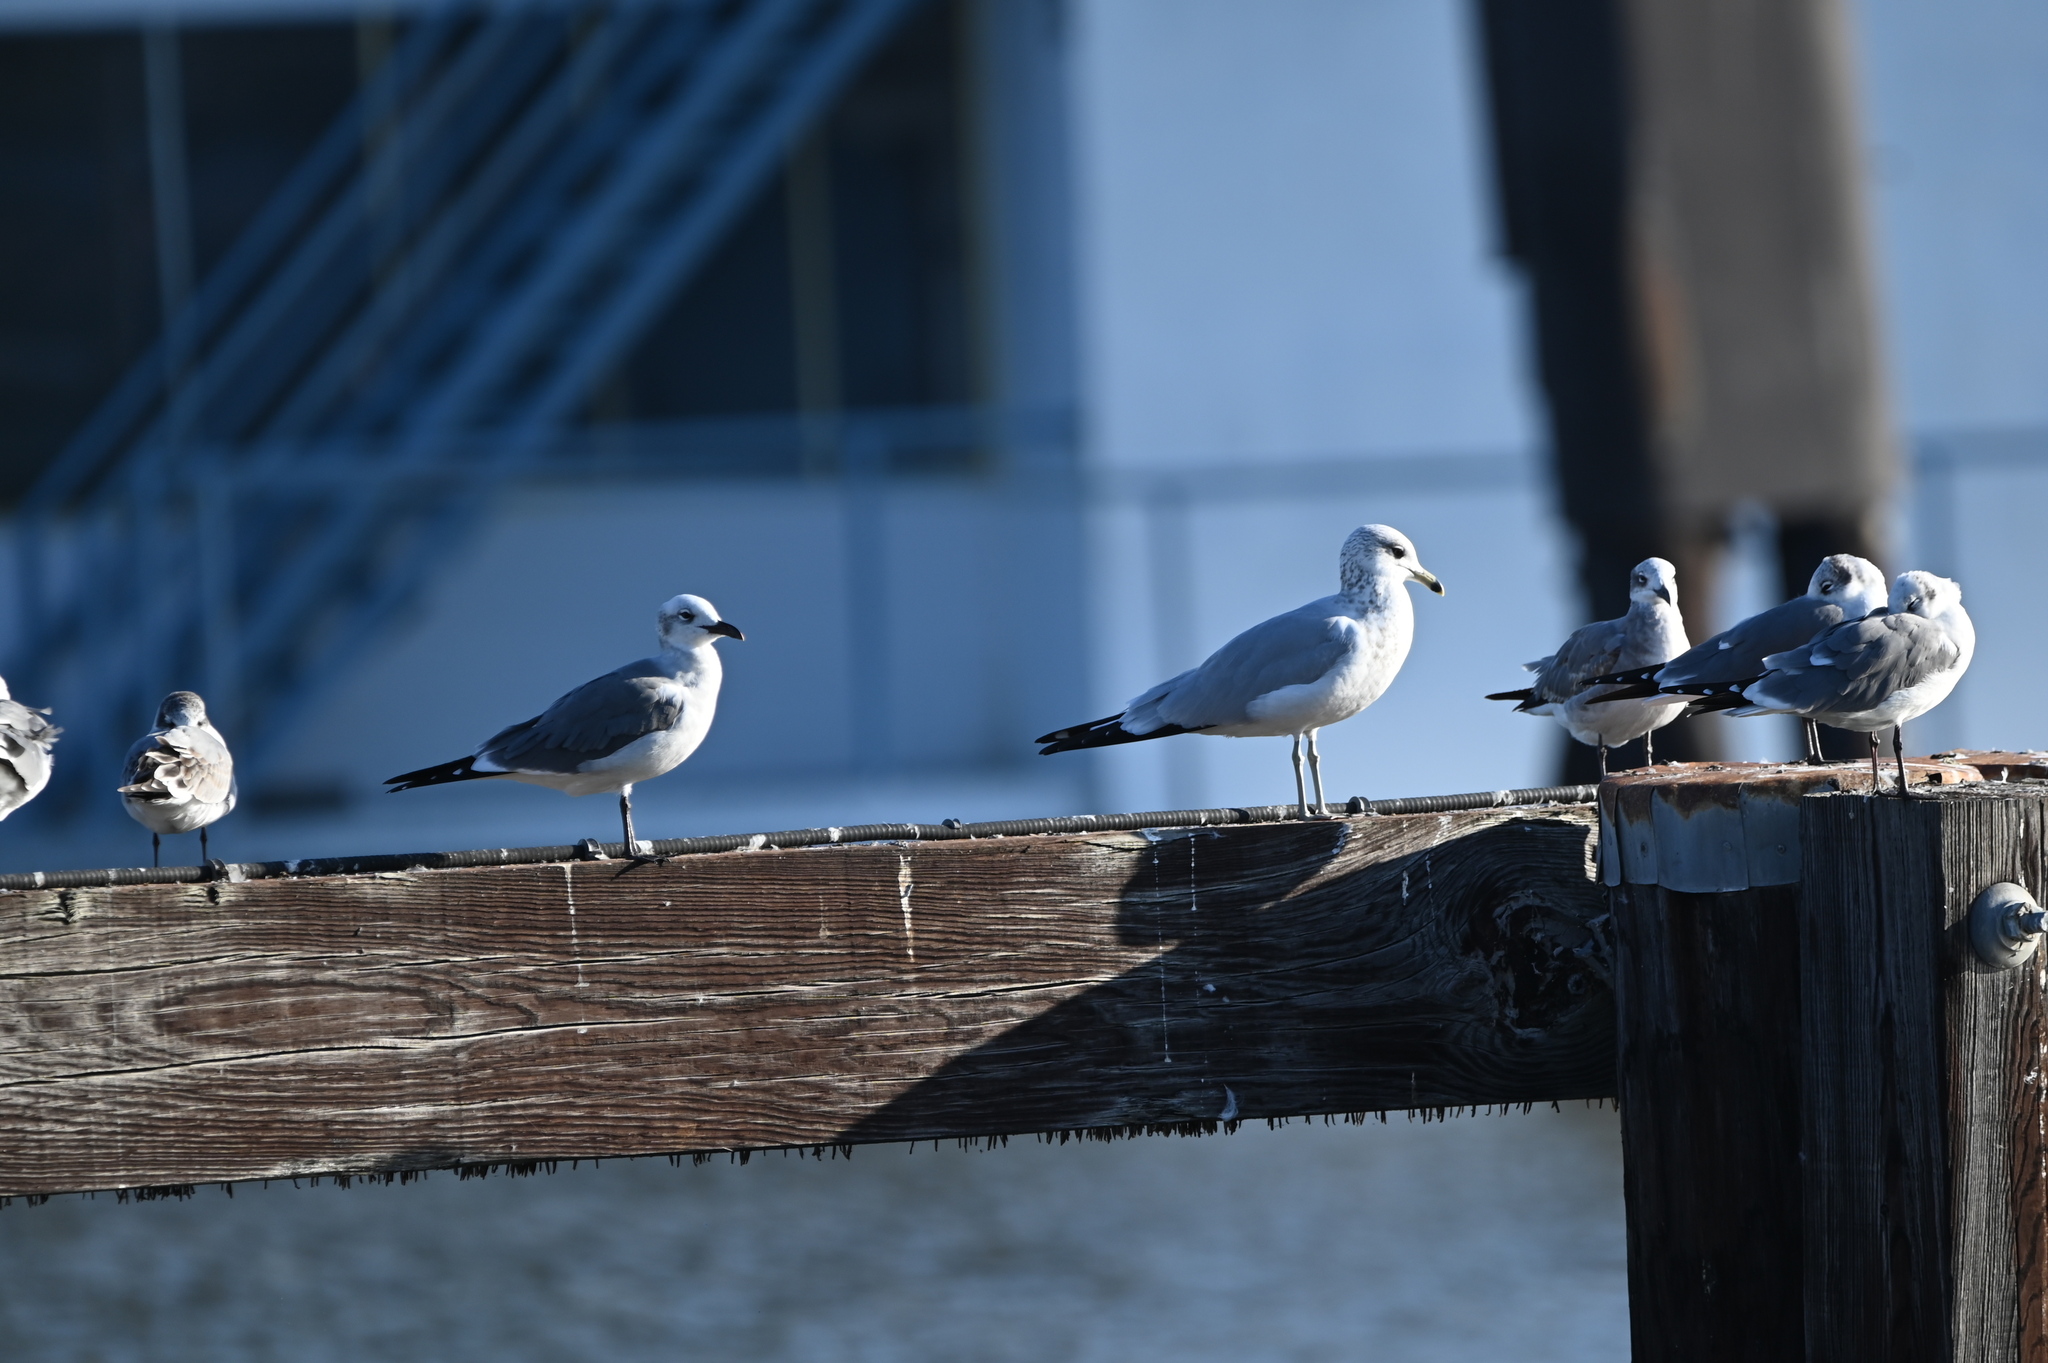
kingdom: Animalia
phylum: Chordata
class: Aves
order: Charadriiformes
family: Laridae
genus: Larus
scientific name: Larus delawarensis
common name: Ring-billed gull
